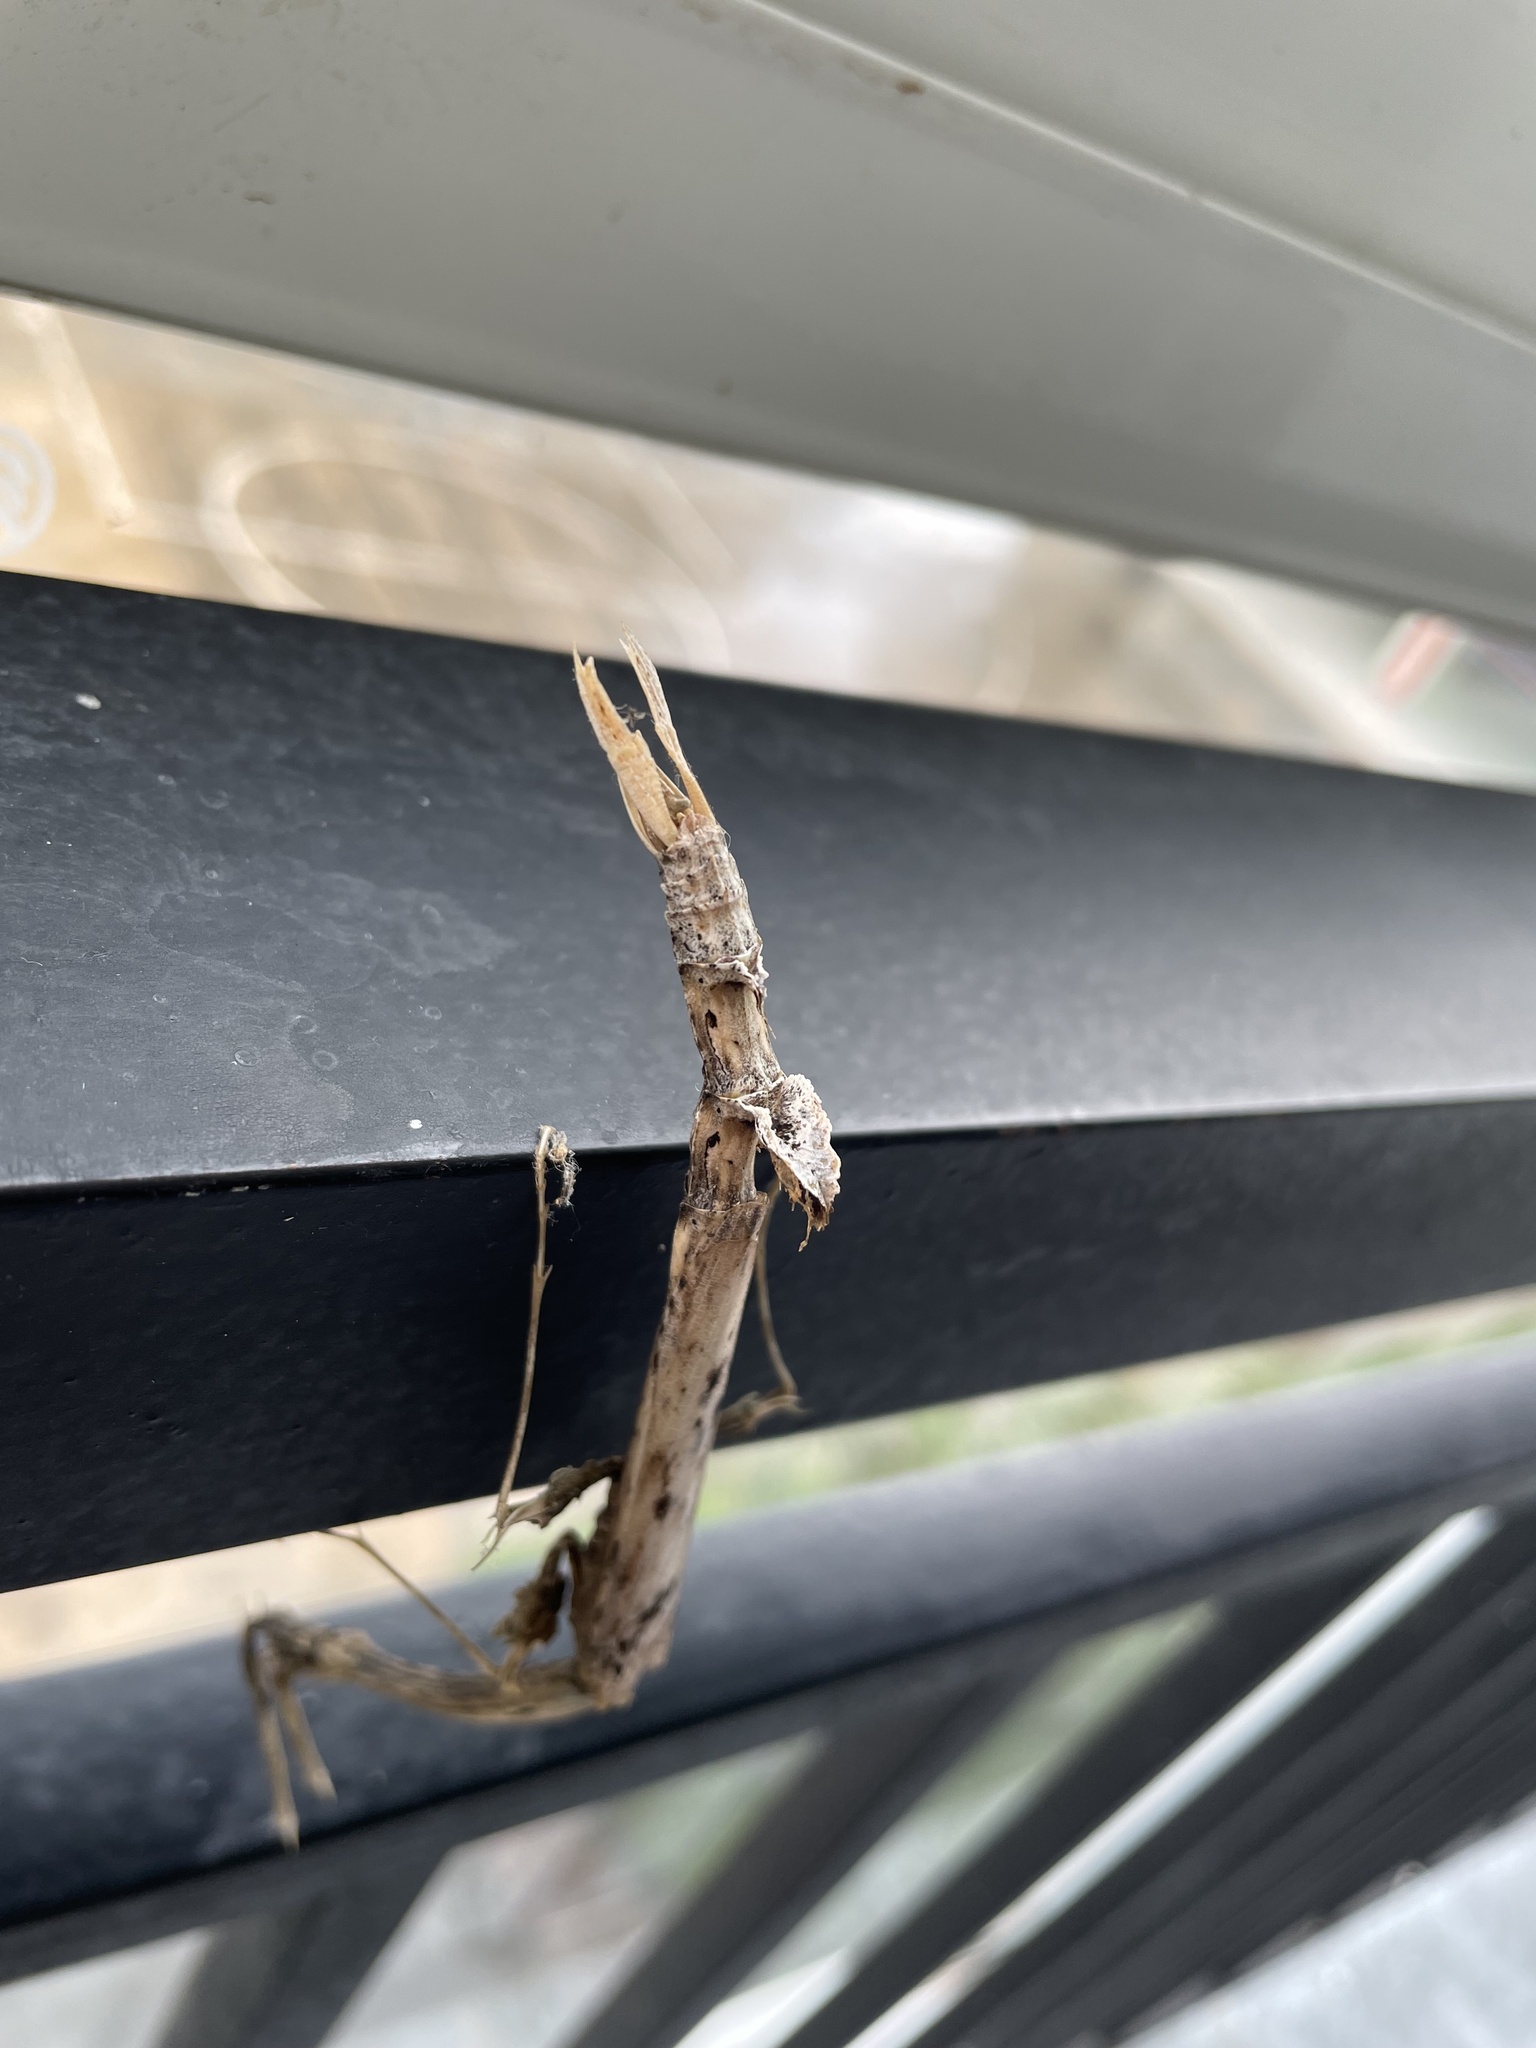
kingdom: Animalia
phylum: Arthropoda
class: Insecta
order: Mantodea
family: Toxoderidae
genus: Toxodera
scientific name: Toxodera maculata
